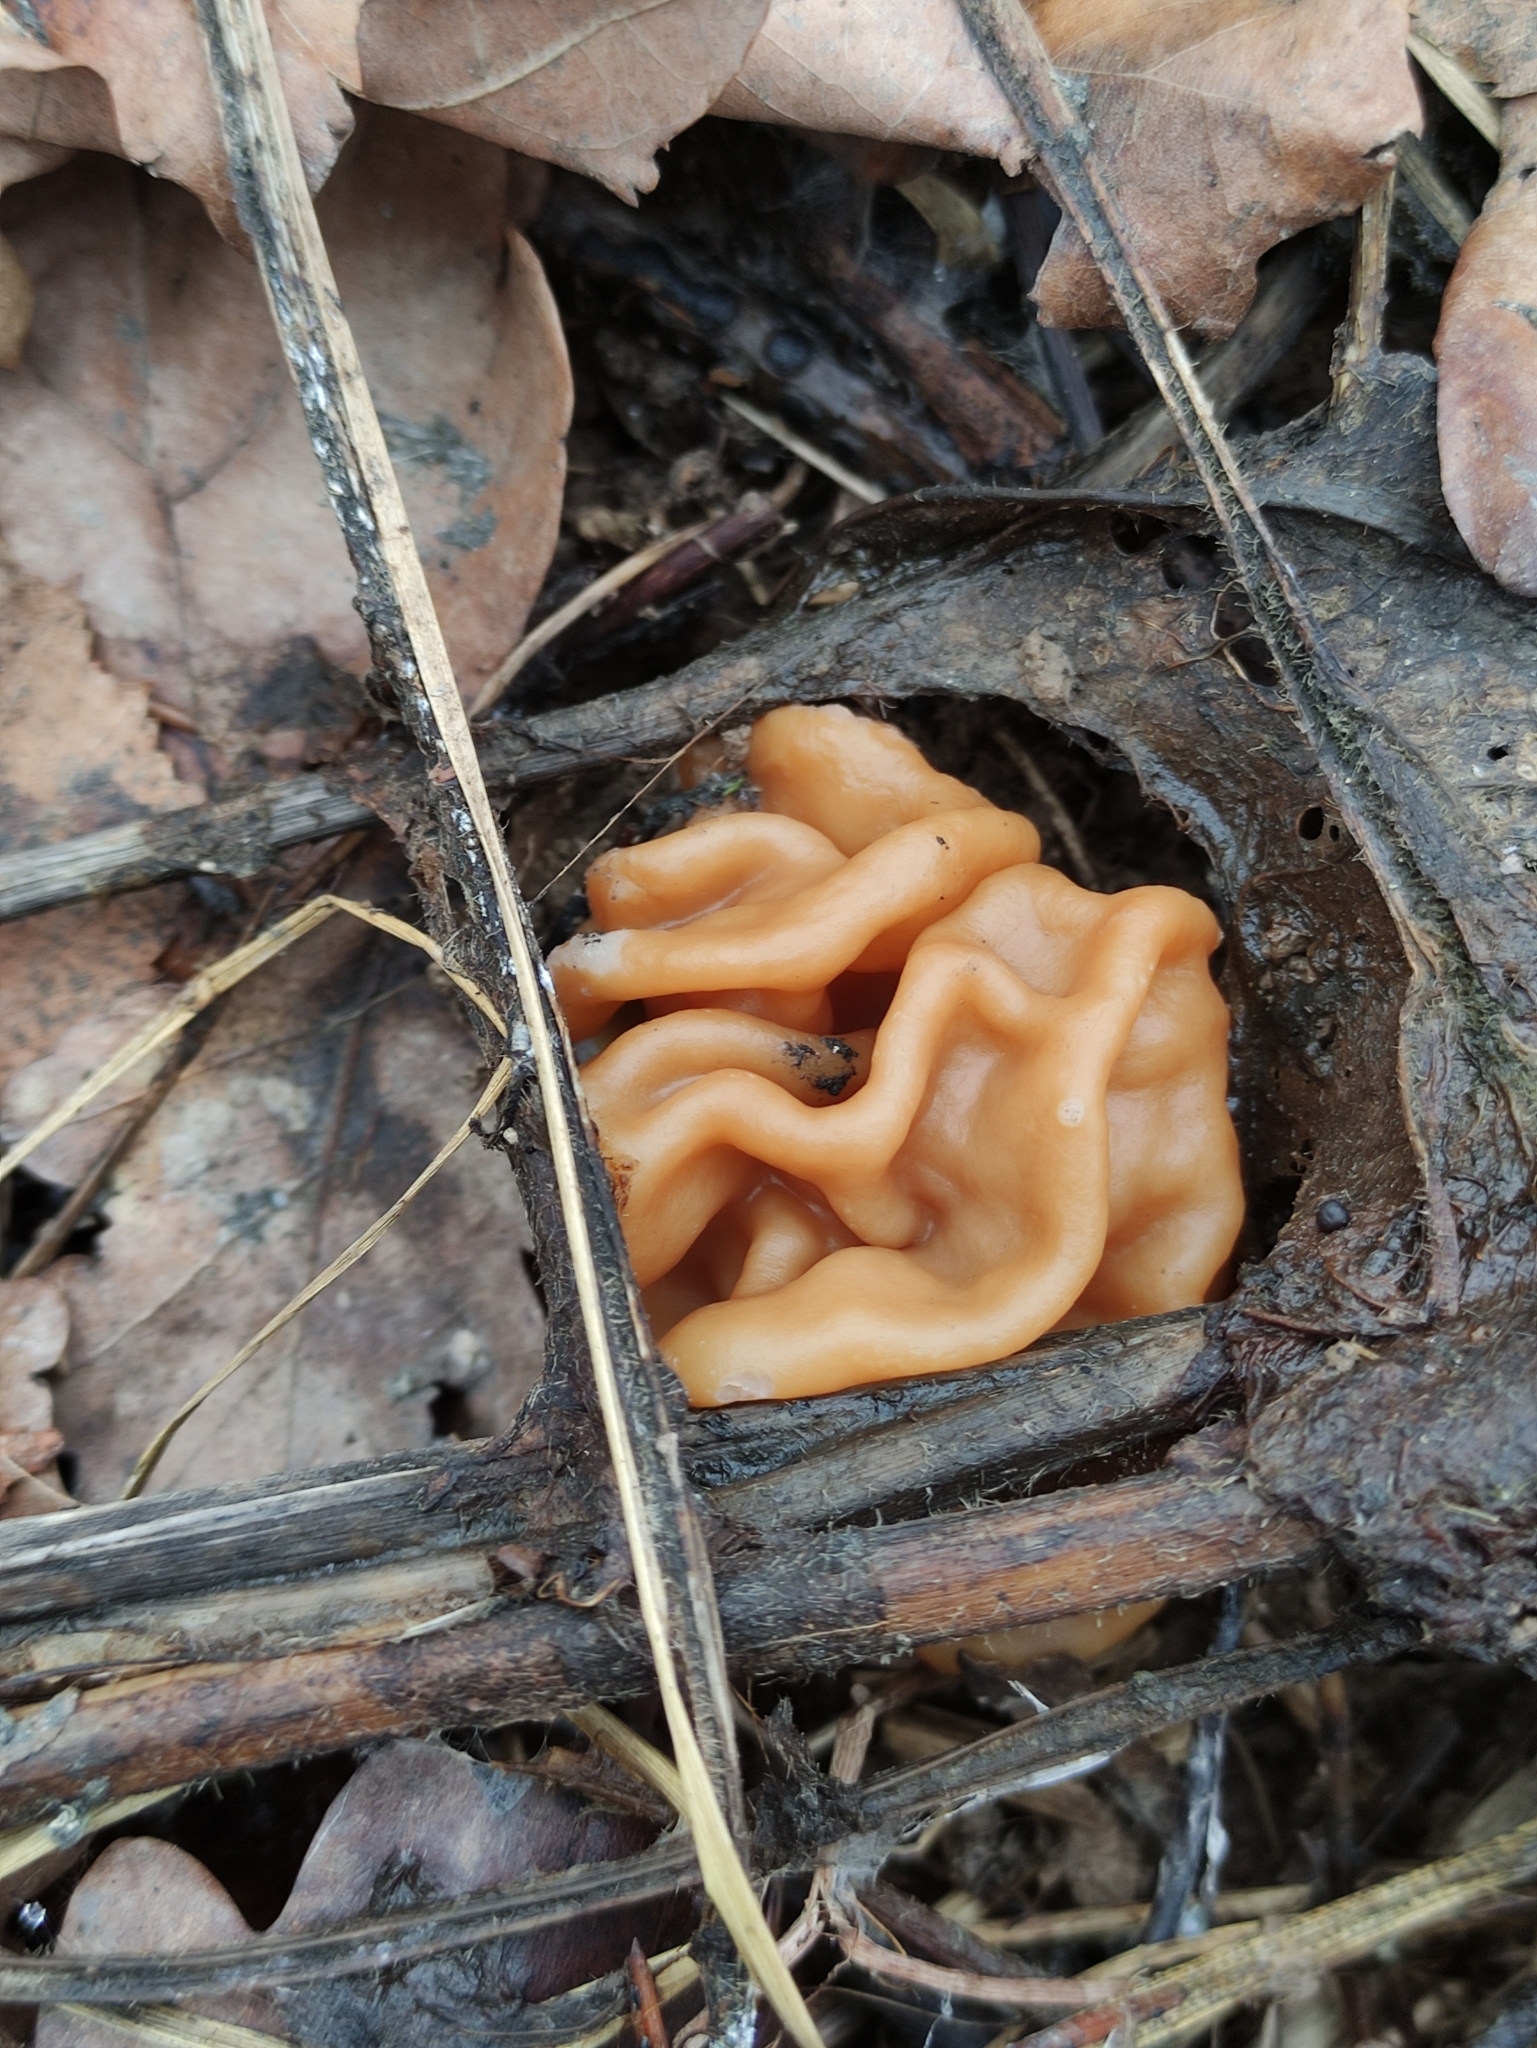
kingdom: Fungi
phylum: Ascomycota
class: Pezizomycetes
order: Pezizales
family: Discinaceae
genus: Gyromitra
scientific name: Gyromitra gigas
